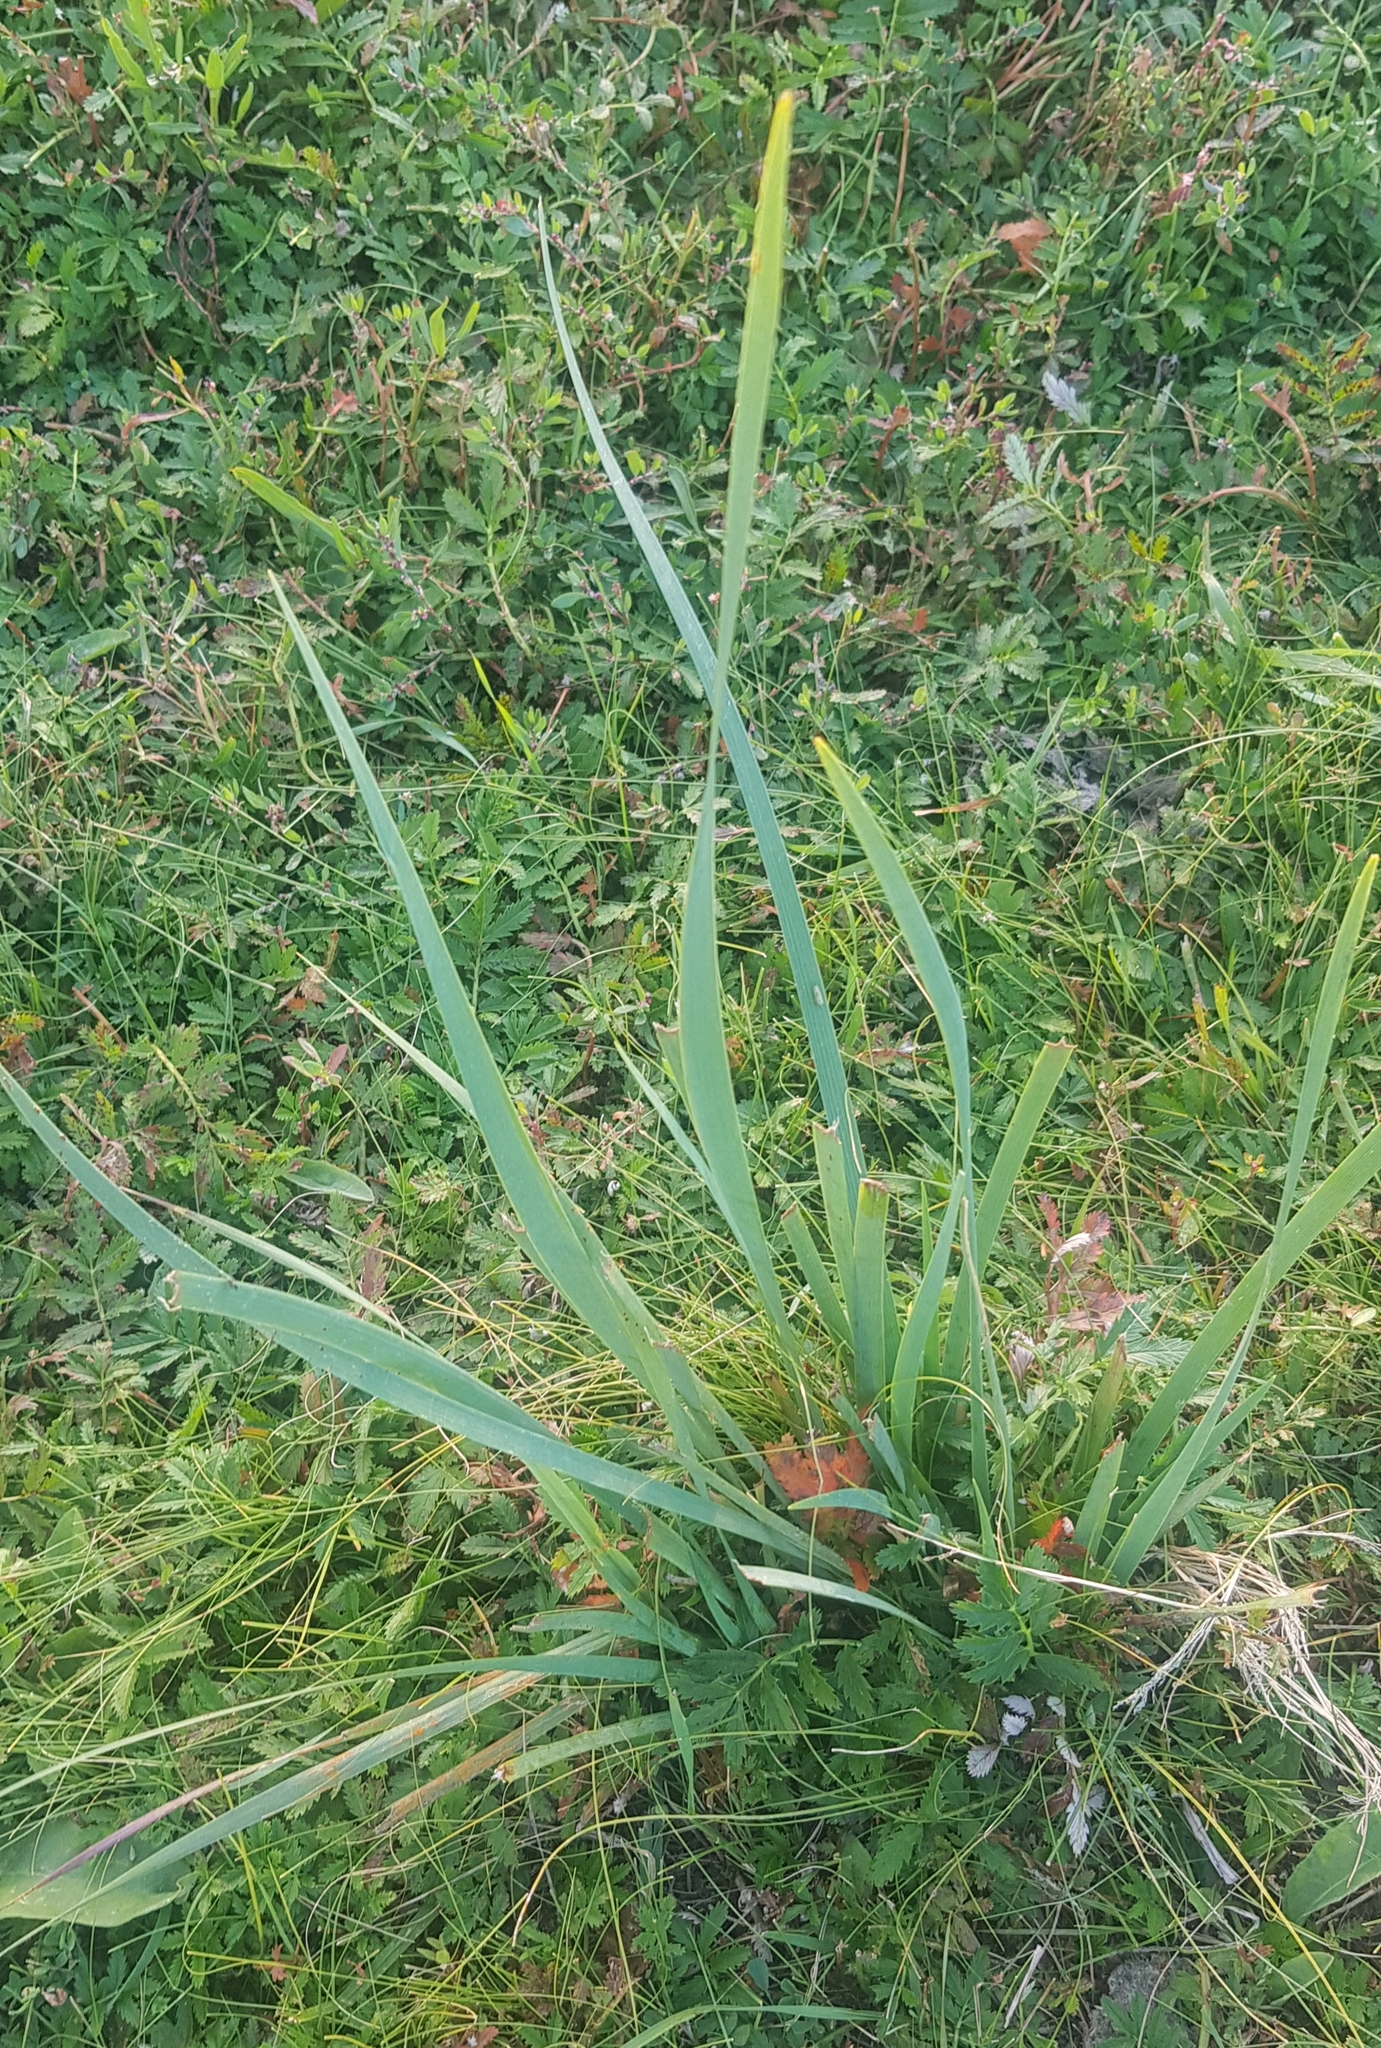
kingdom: Plantae
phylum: Tracheophyta
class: Liliopsida
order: Asparagales
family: Iridaceae
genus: Iris
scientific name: Iris lactea
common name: White-flower chinese iris
